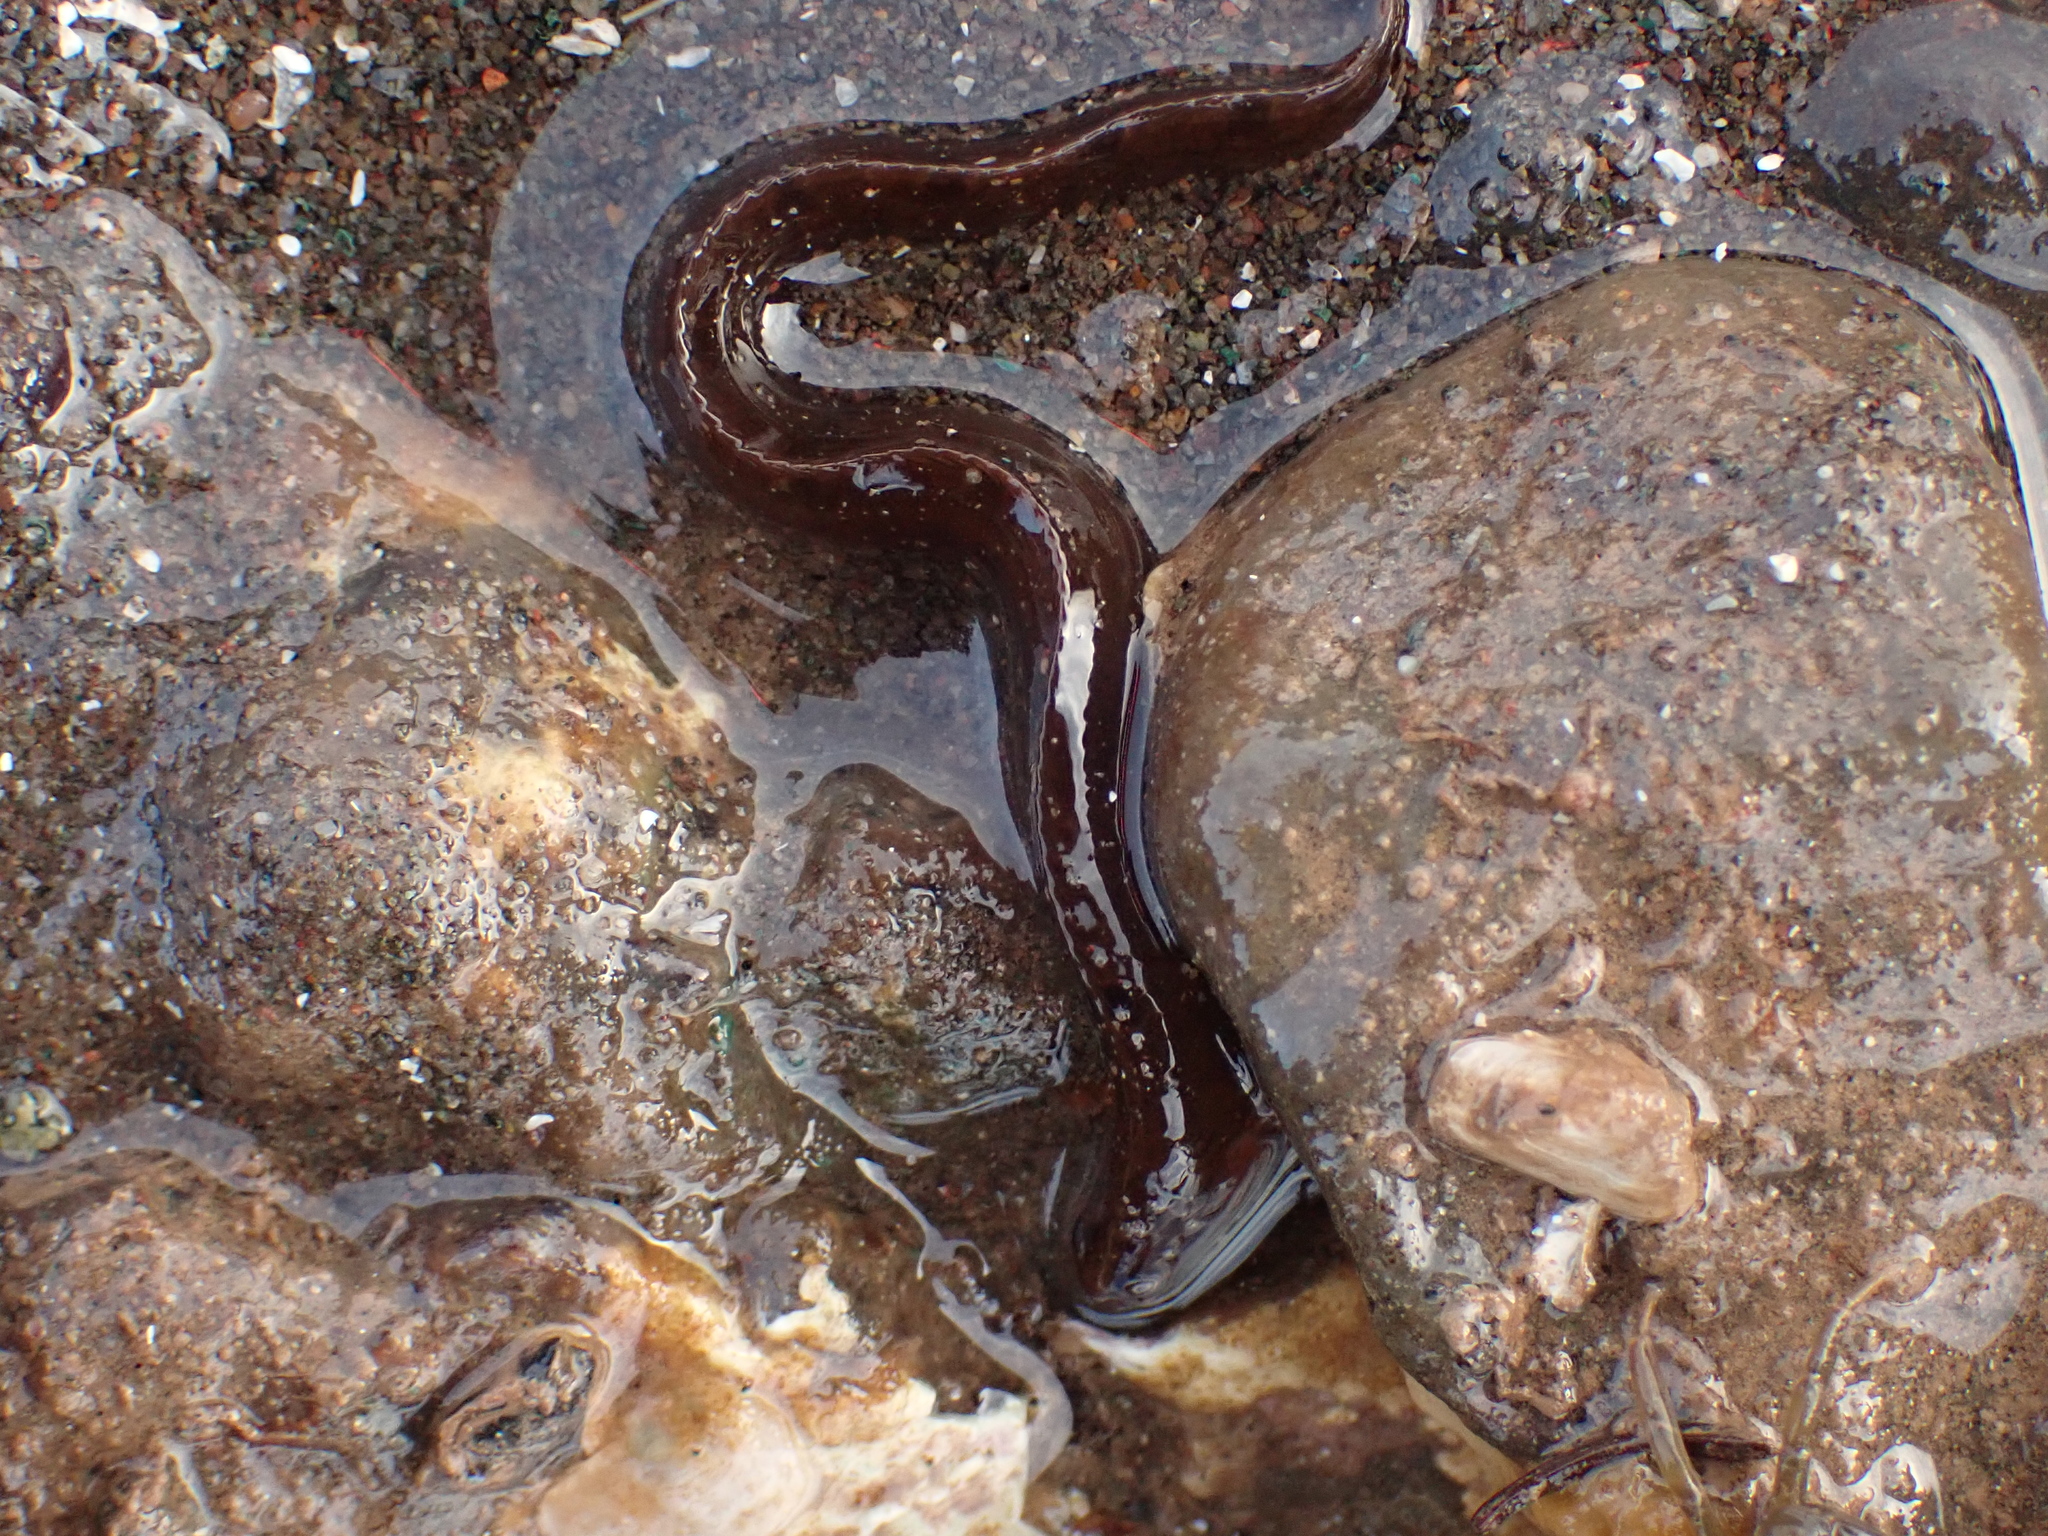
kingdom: Animalia
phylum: Chordata
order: Perciformes
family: Pholidae
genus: Pholis
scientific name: Pholis gunnellus
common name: Butterfish
